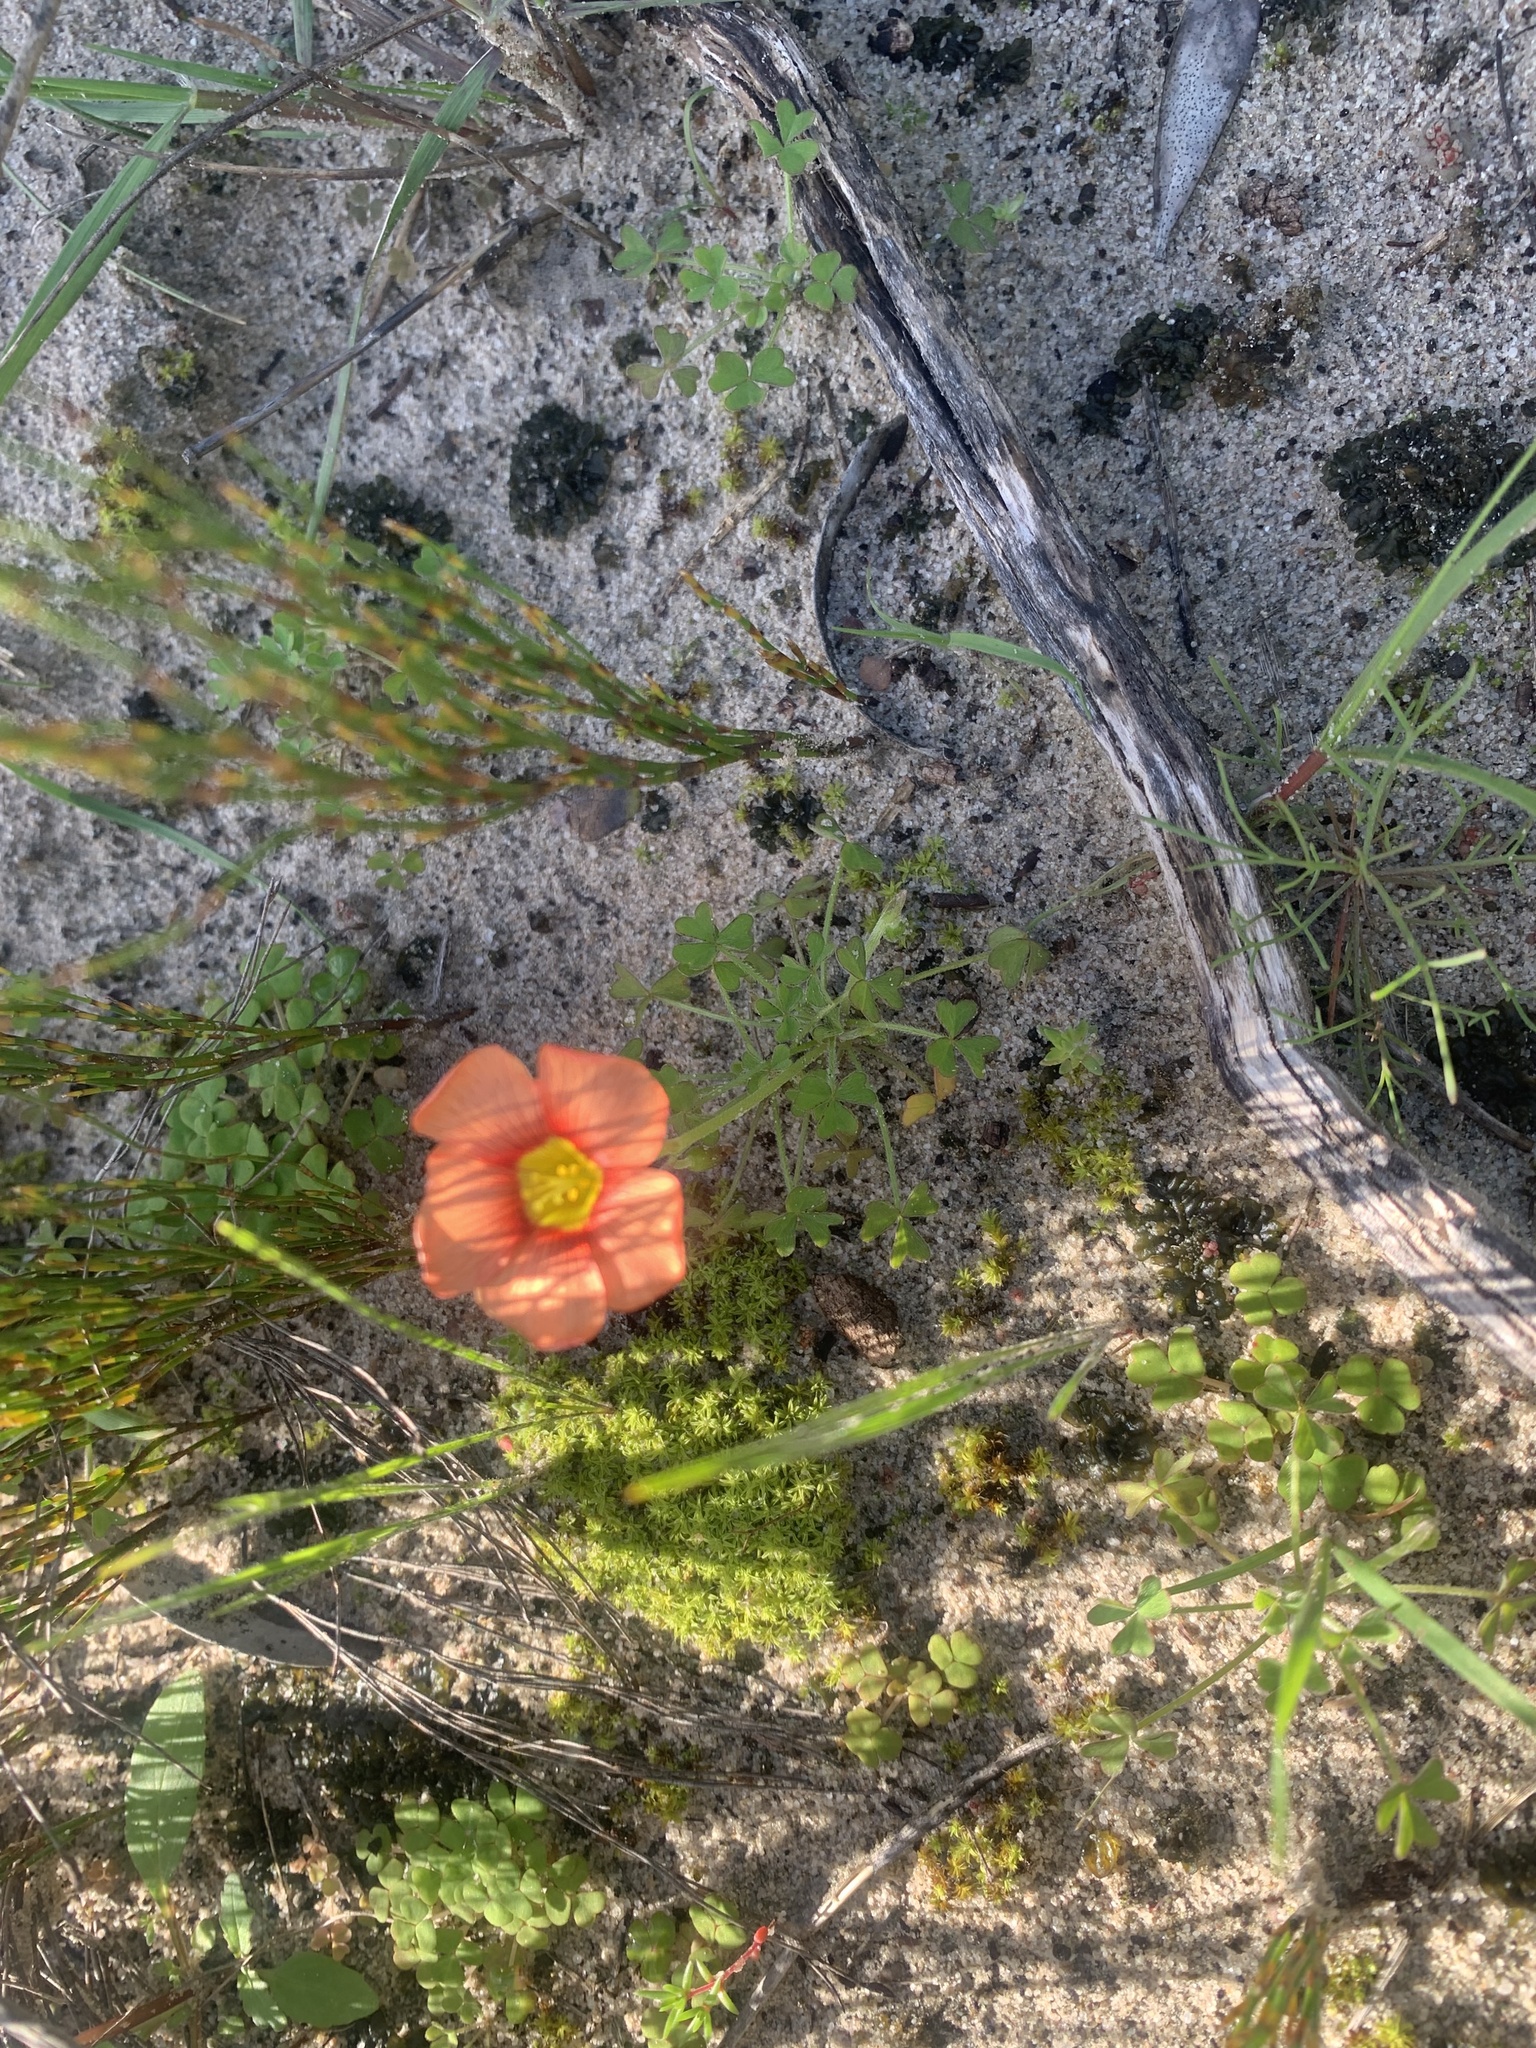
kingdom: Plantae
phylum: Tracheophyta
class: Magnoliopsida
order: Oxalidales
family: Oxalidaceae
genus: Oxalis
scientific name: Oxalis obtusa
